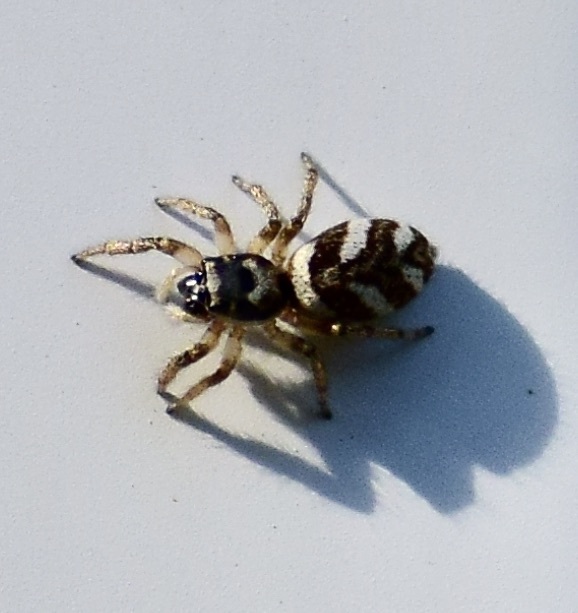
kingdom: Animalia
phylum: Arthropoda
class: Arachnida
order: Araneae
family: Salticidae
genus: Salticus
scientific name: Salticus scenicus
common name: Zebra jumper
